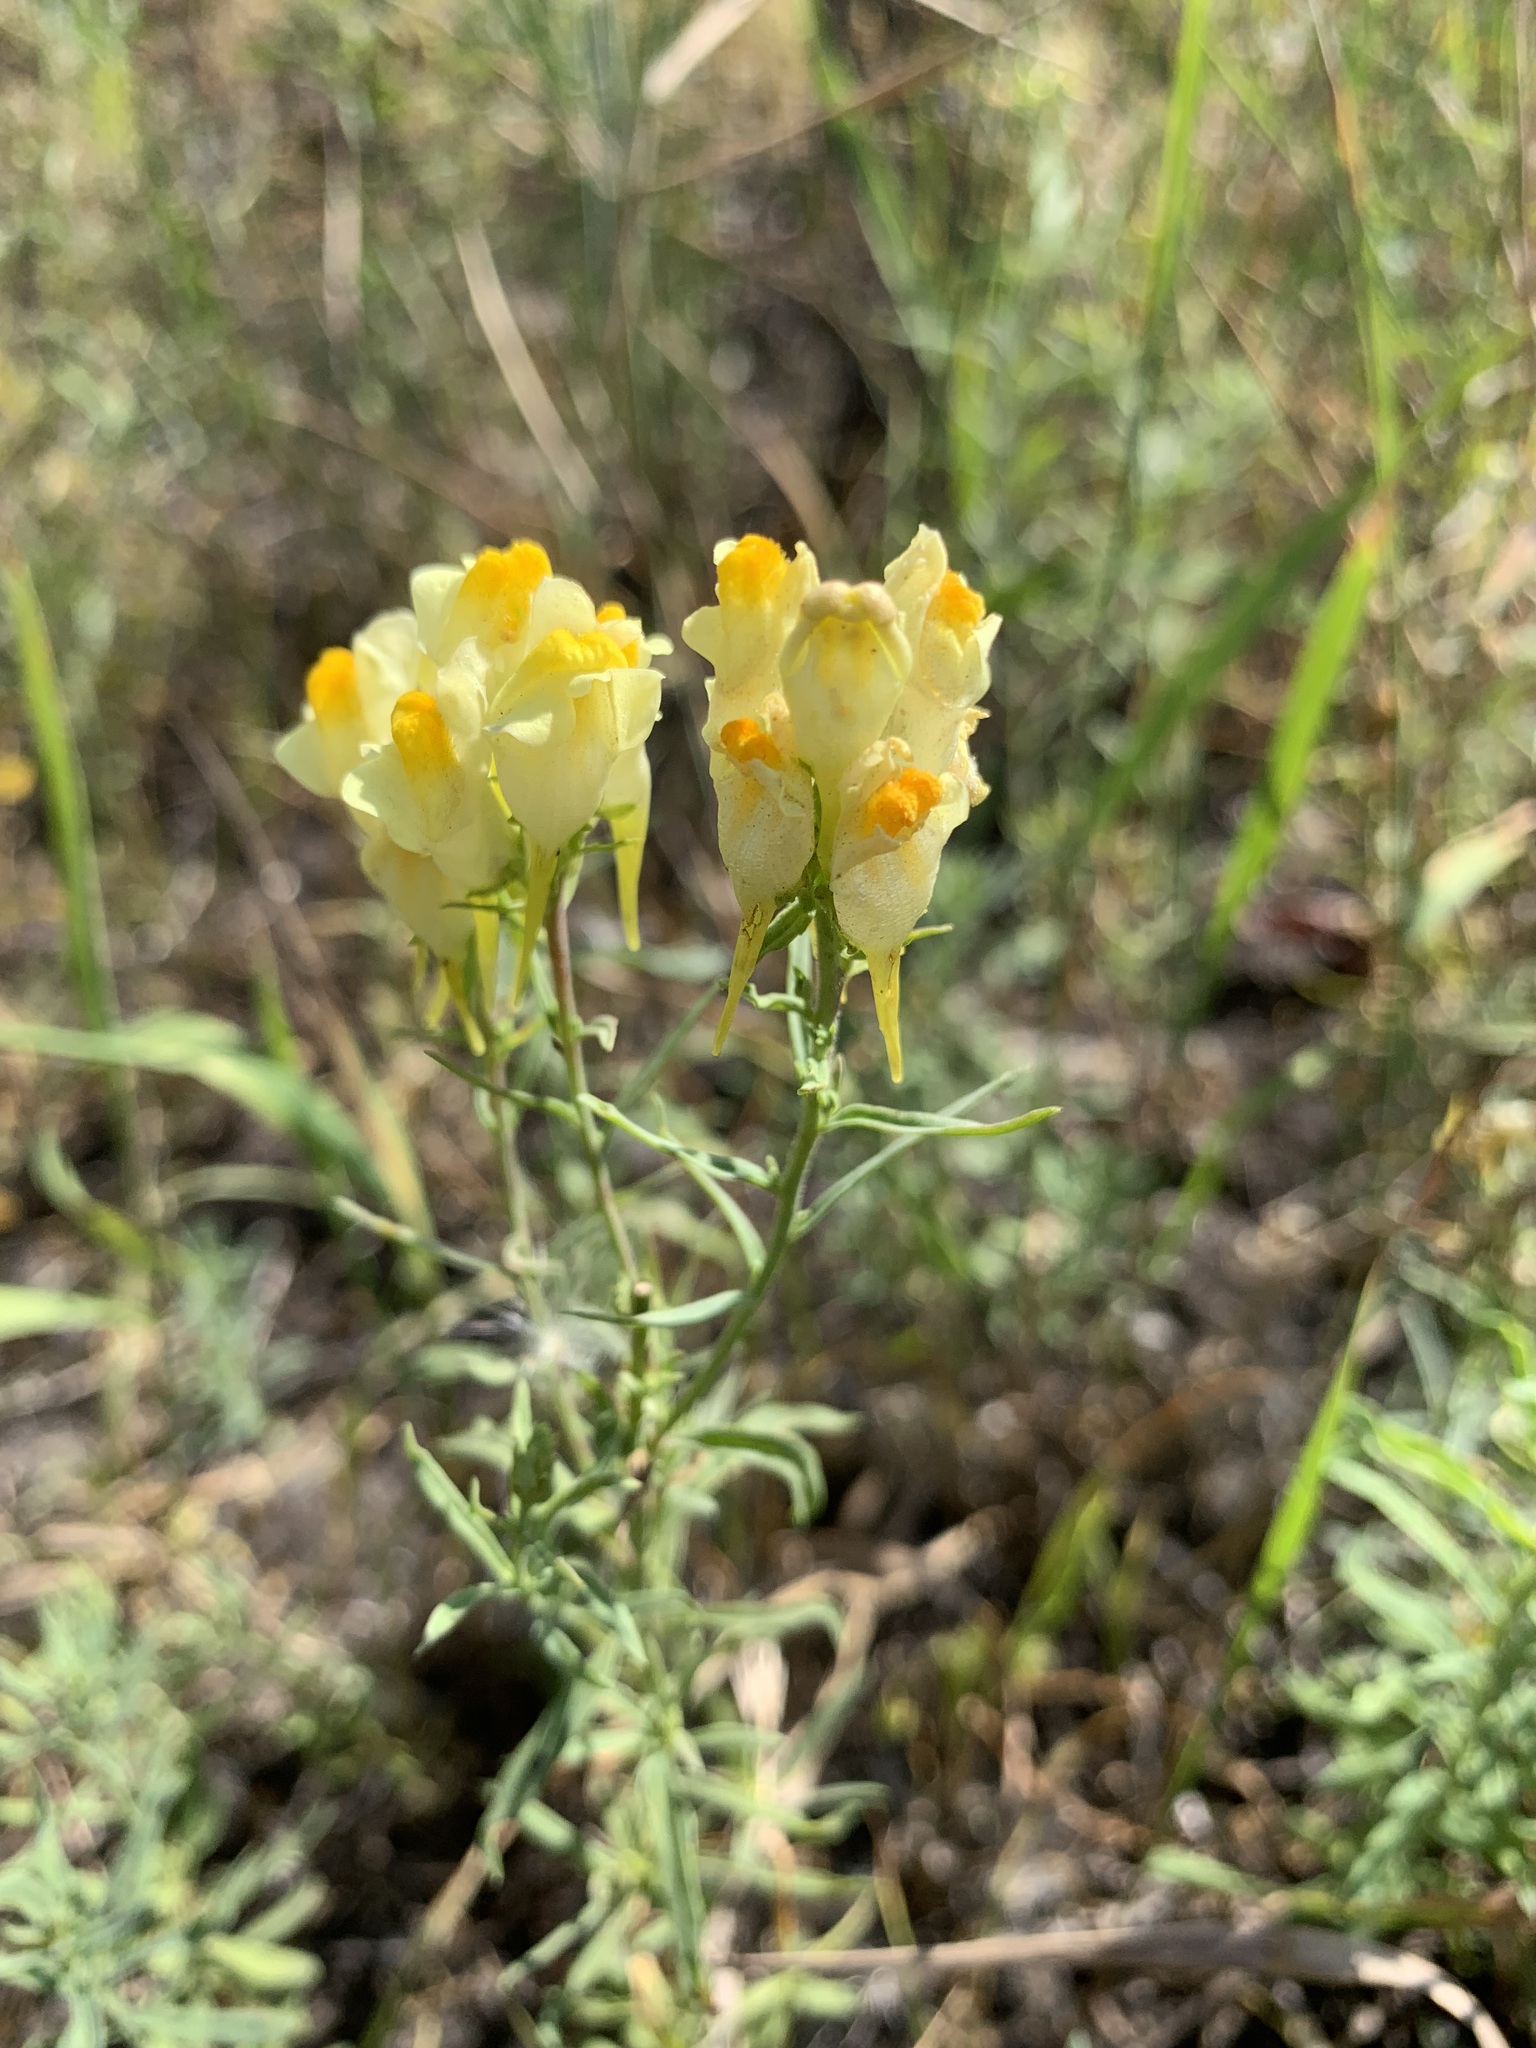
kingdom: Plantae
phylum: Tracheophyta
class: Magnoliopsida
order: Lamiales
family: Plantaginaceae
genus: Linaria
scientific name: Linaria vulgaris
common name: Butter and eggs
